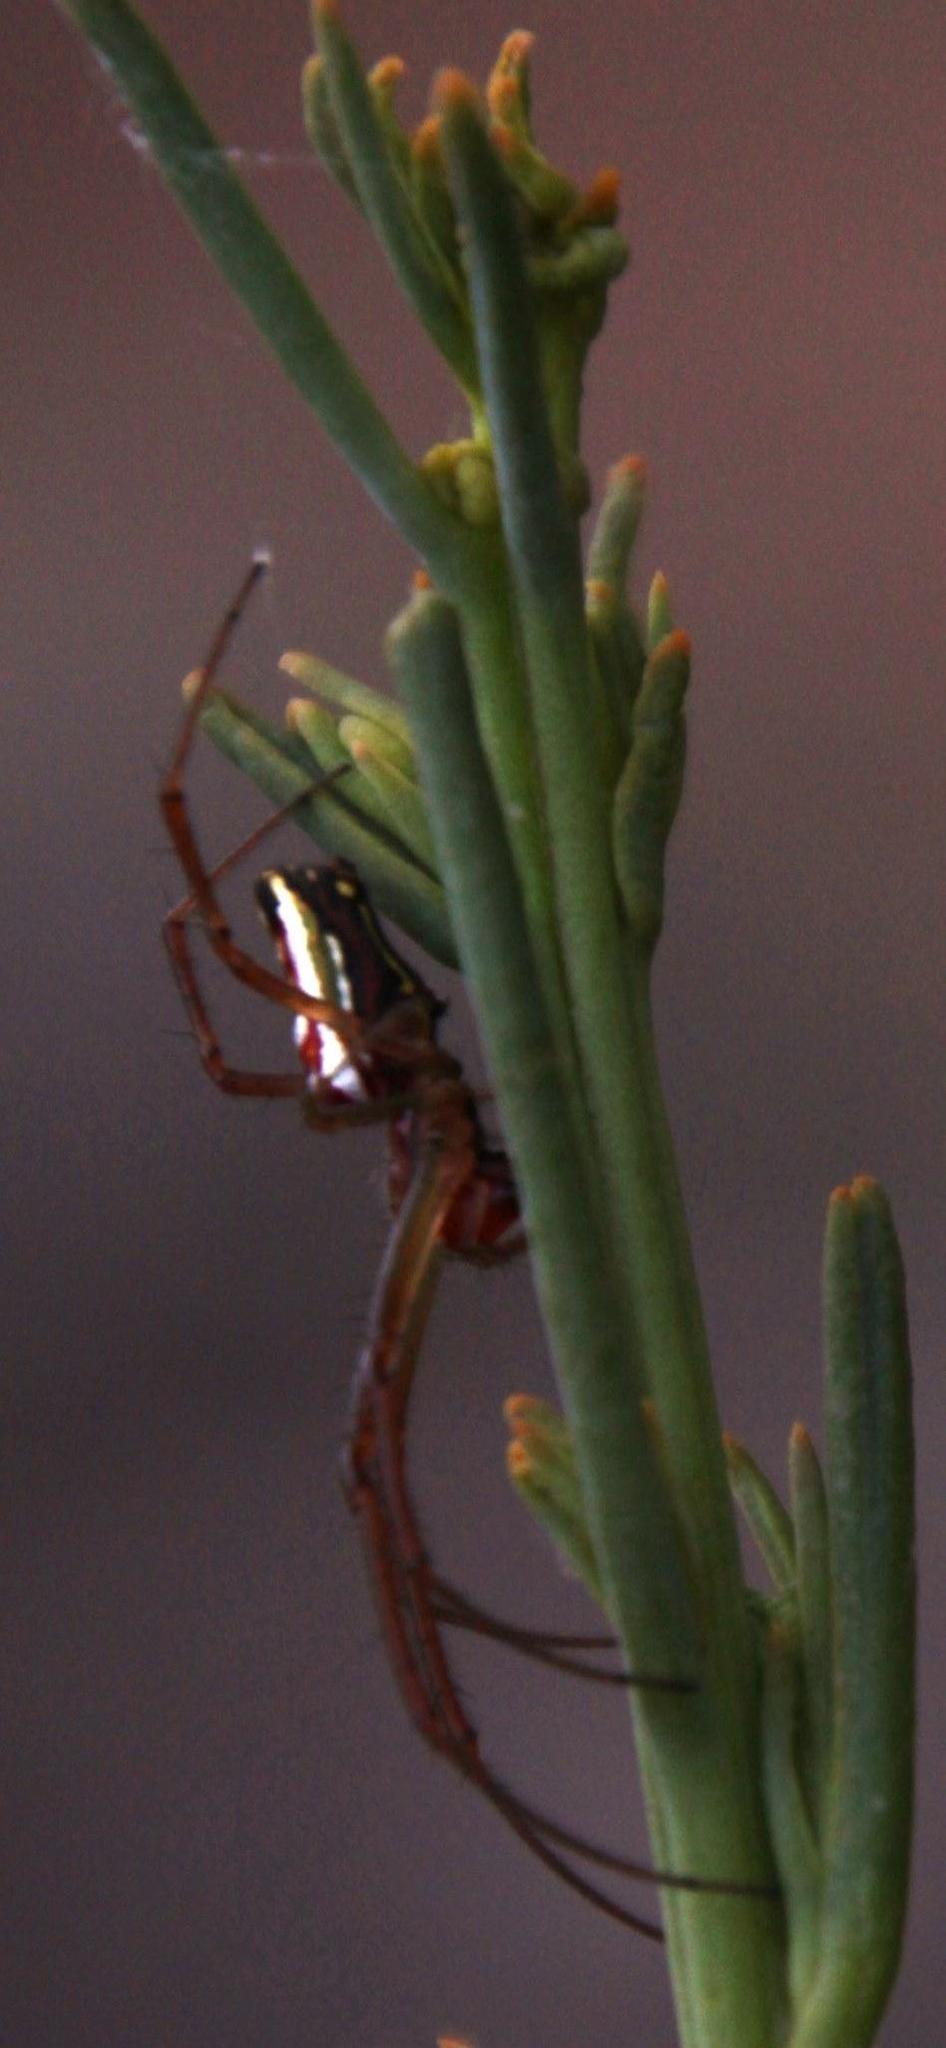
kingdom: Animalia
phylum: Arthropoda
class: Arachnida
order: Araneae
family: Tetragnathidae
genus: Leucauge
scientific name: Leucauge festiva
